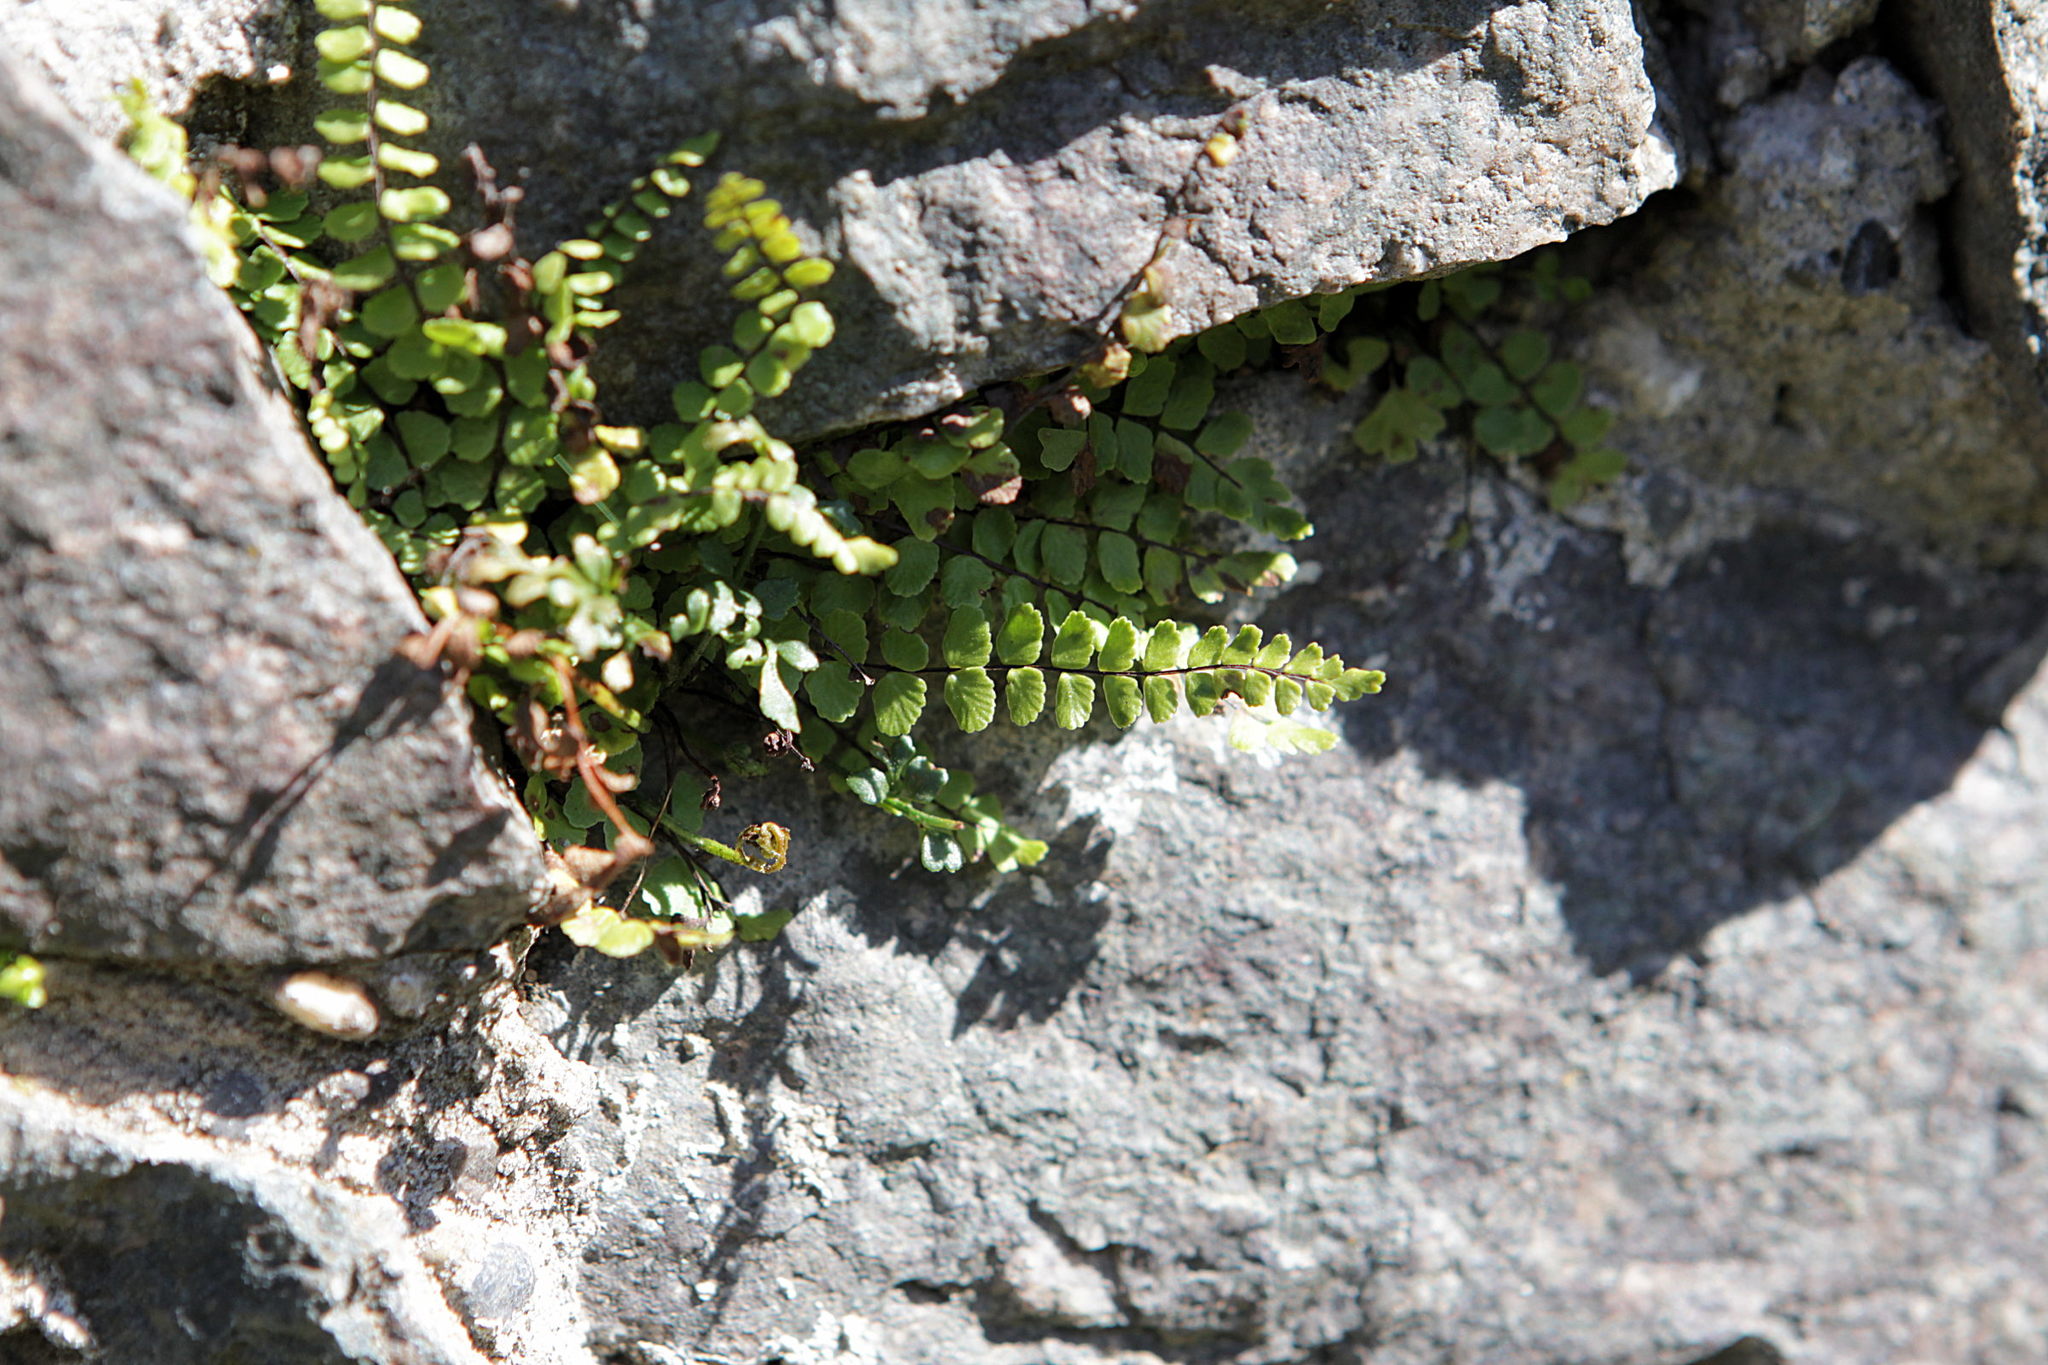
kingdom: Plantae
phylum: Tracheophyta
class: Polypodiopsida
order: Polypodiales
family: Aspleniaceae
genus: Asplenium
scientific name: Asplenium trichomanes
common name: Maidenhair spleenwort
